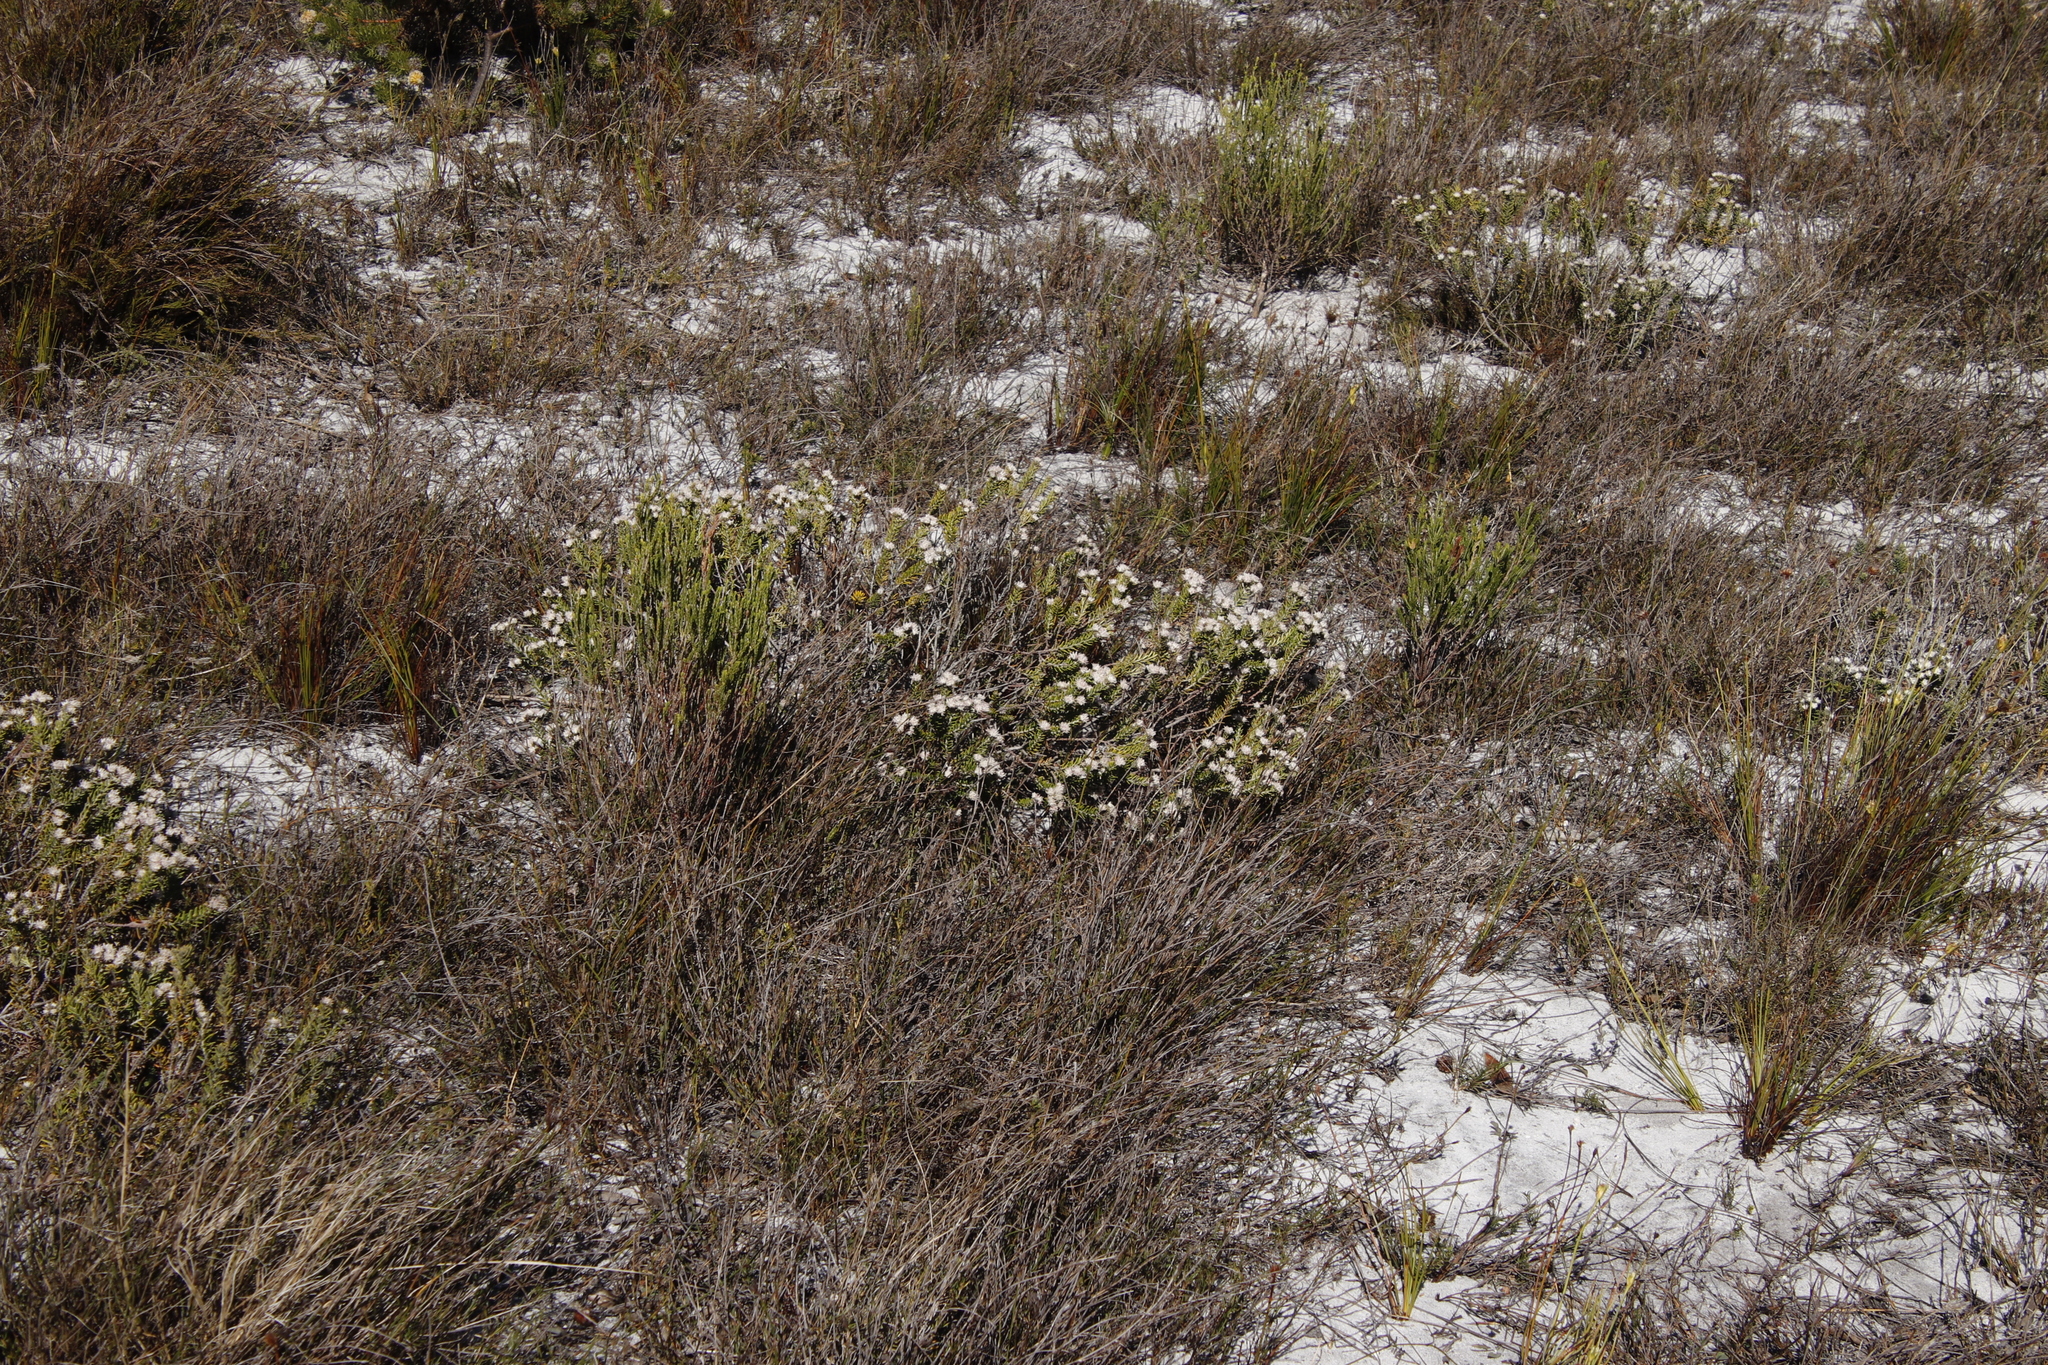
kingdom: Plantae
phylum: Tracheophyta
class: Magnoliopsida
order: Rosales
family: Rhamnaceae
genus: Trichocephalus
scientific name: Trichocephalus stipularis
